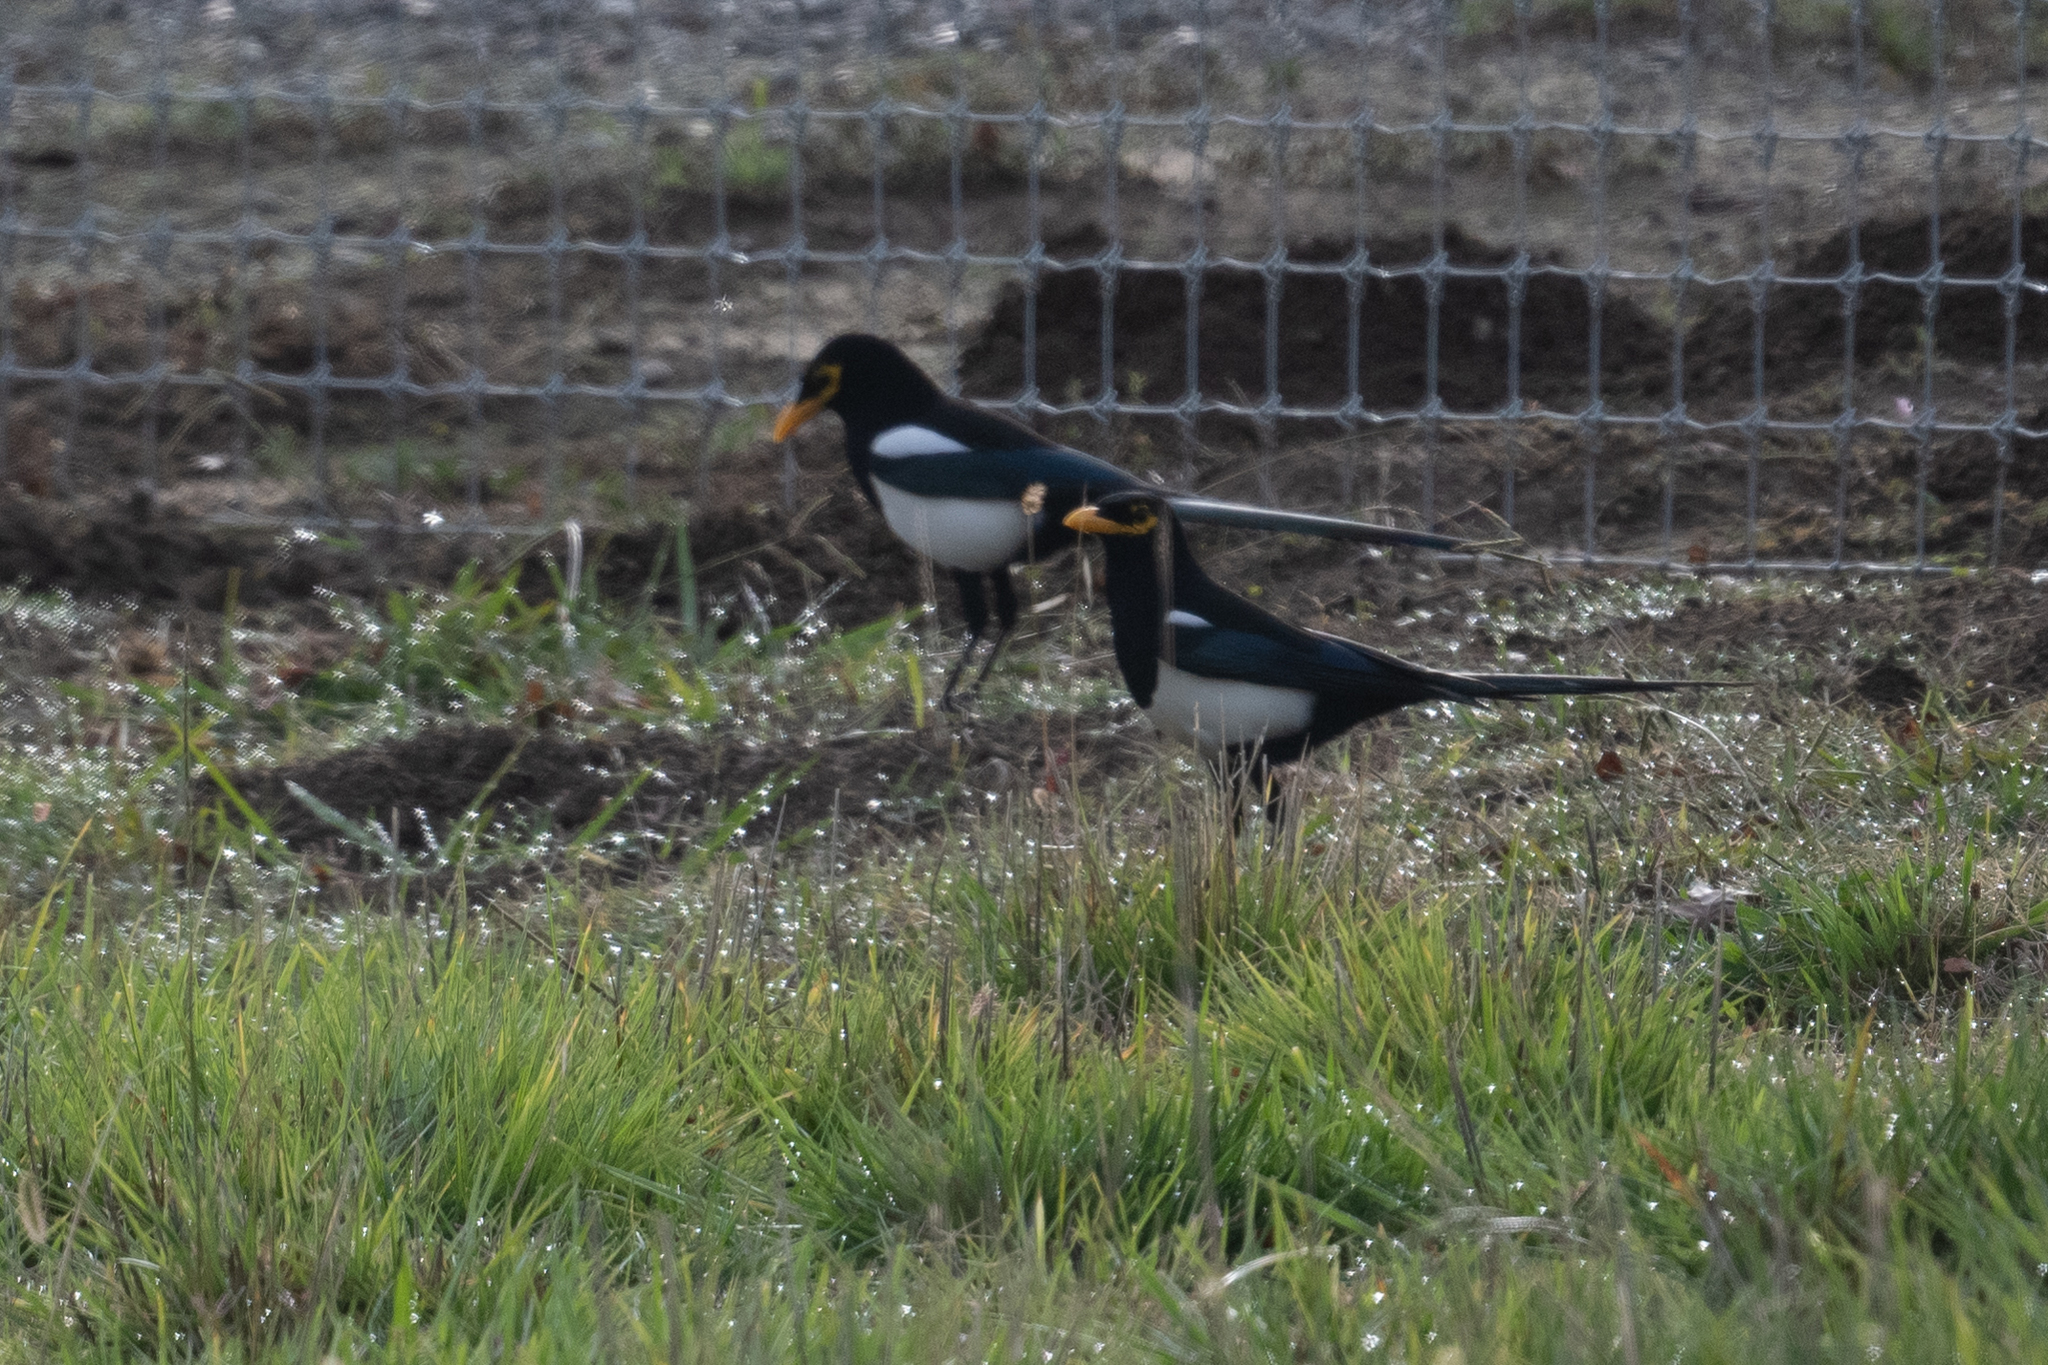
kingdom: Animalia
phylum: Chordata
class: Aves
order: Passeriformes
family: Corvidae
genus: Pica
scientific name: Pica nuttalli
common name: Yellow-billed magpie
